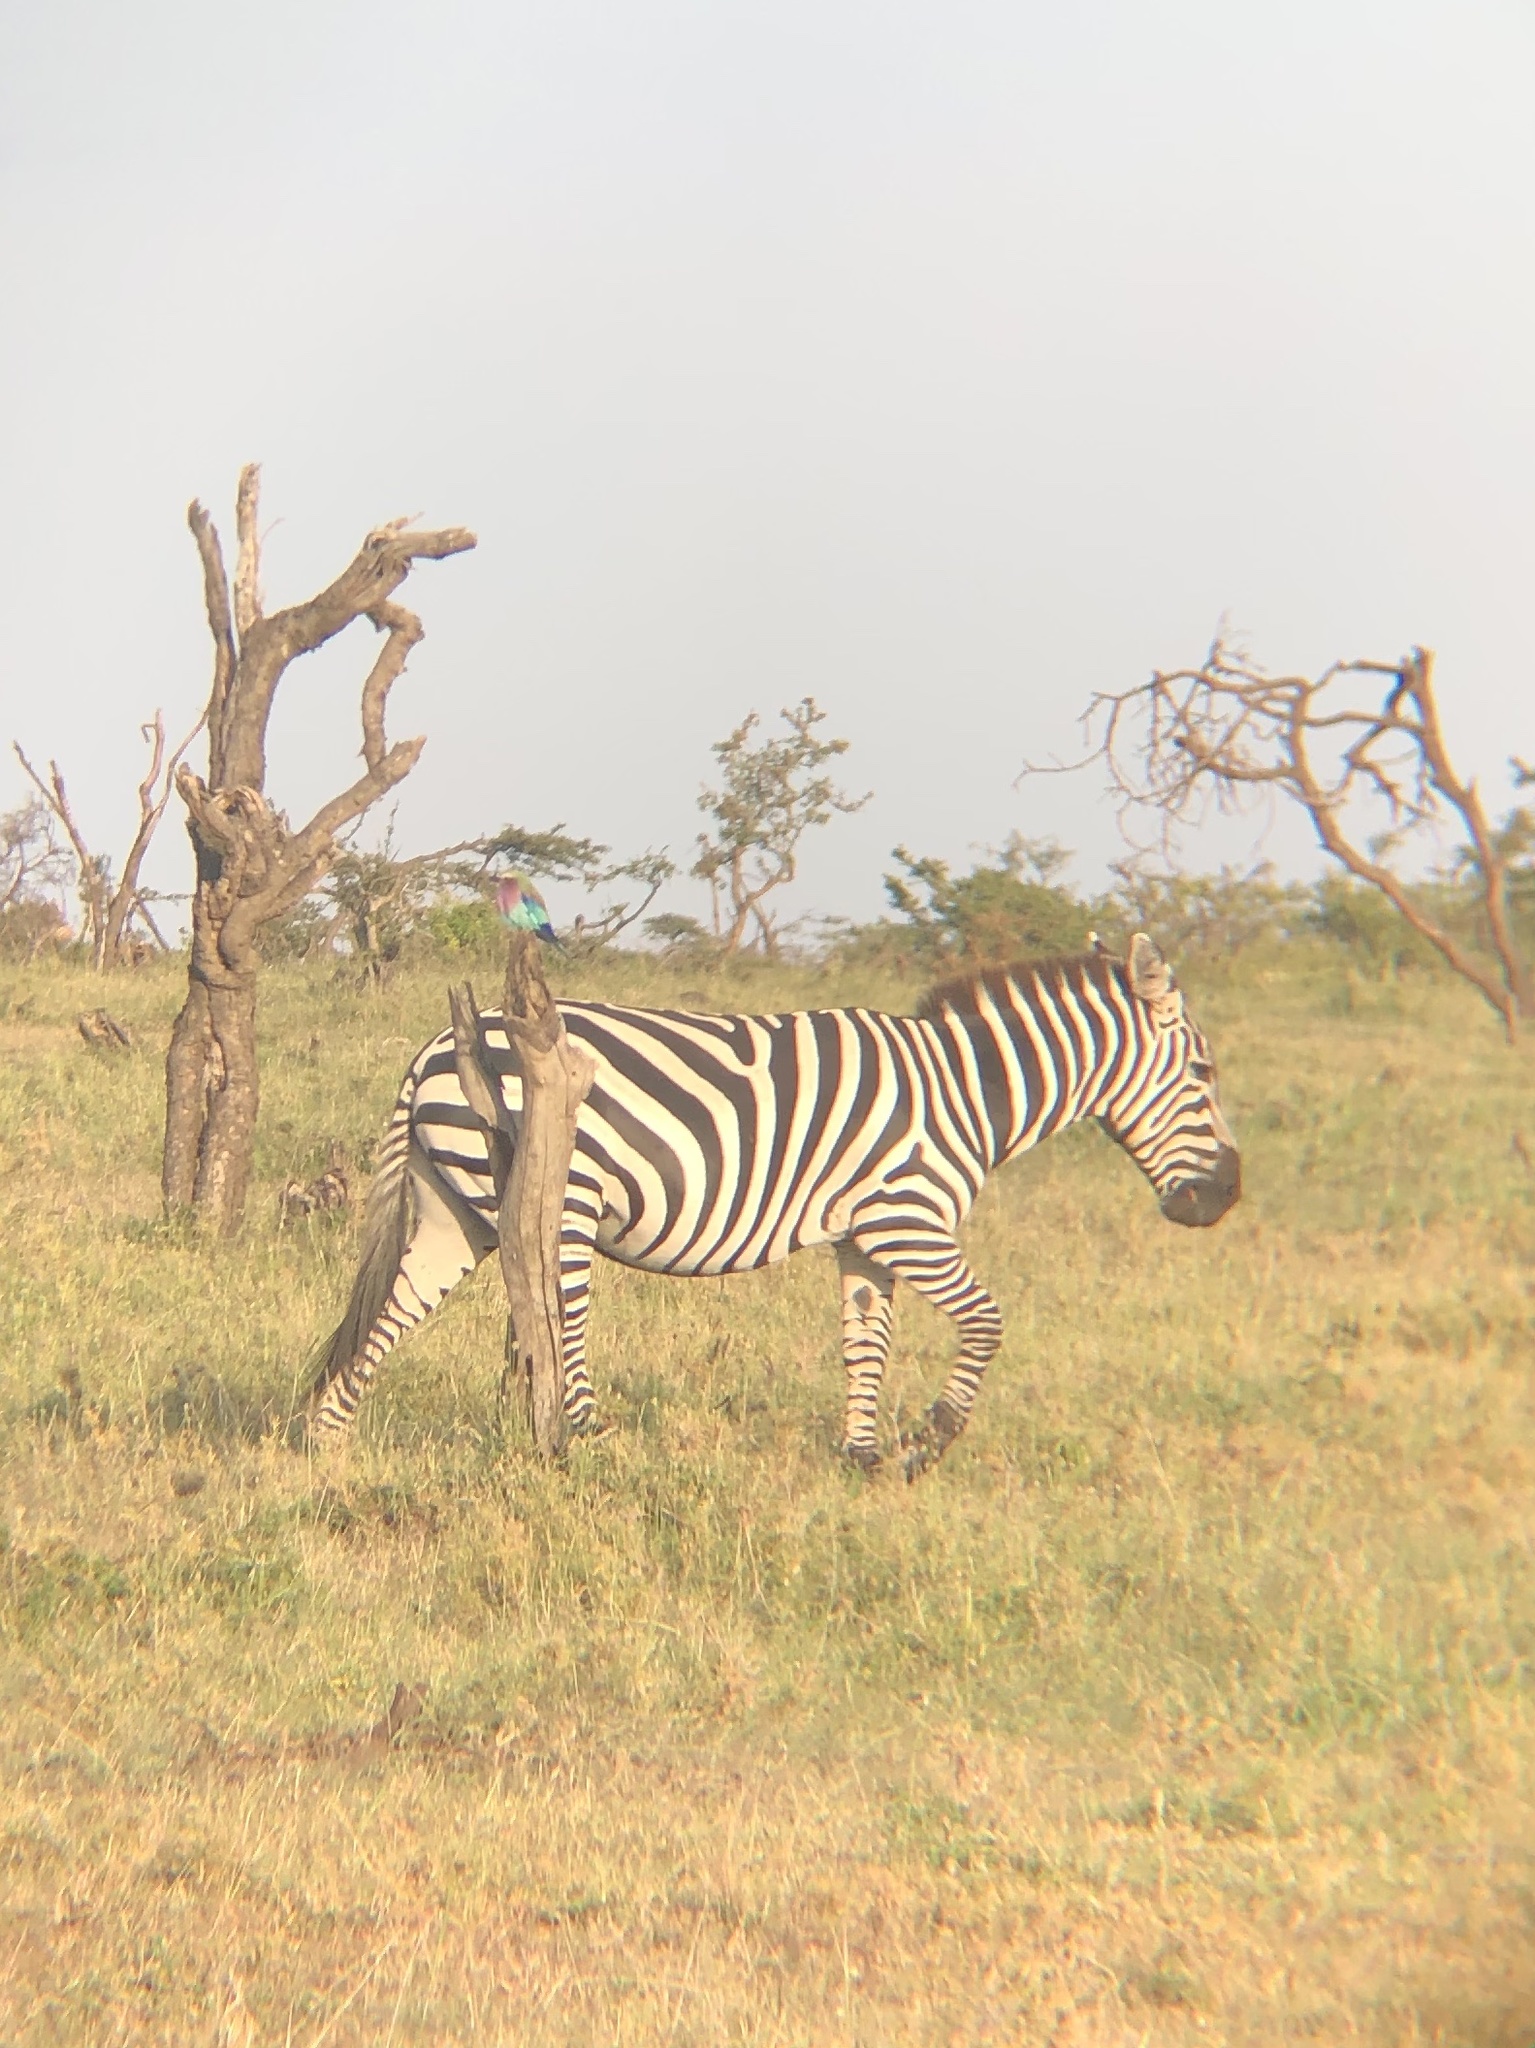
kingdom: Animalia
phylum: Chordata
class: Mammalia
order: Perissodactyla
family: Equidae
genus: Equus
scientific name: Equus quagga
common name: Plains zebra
